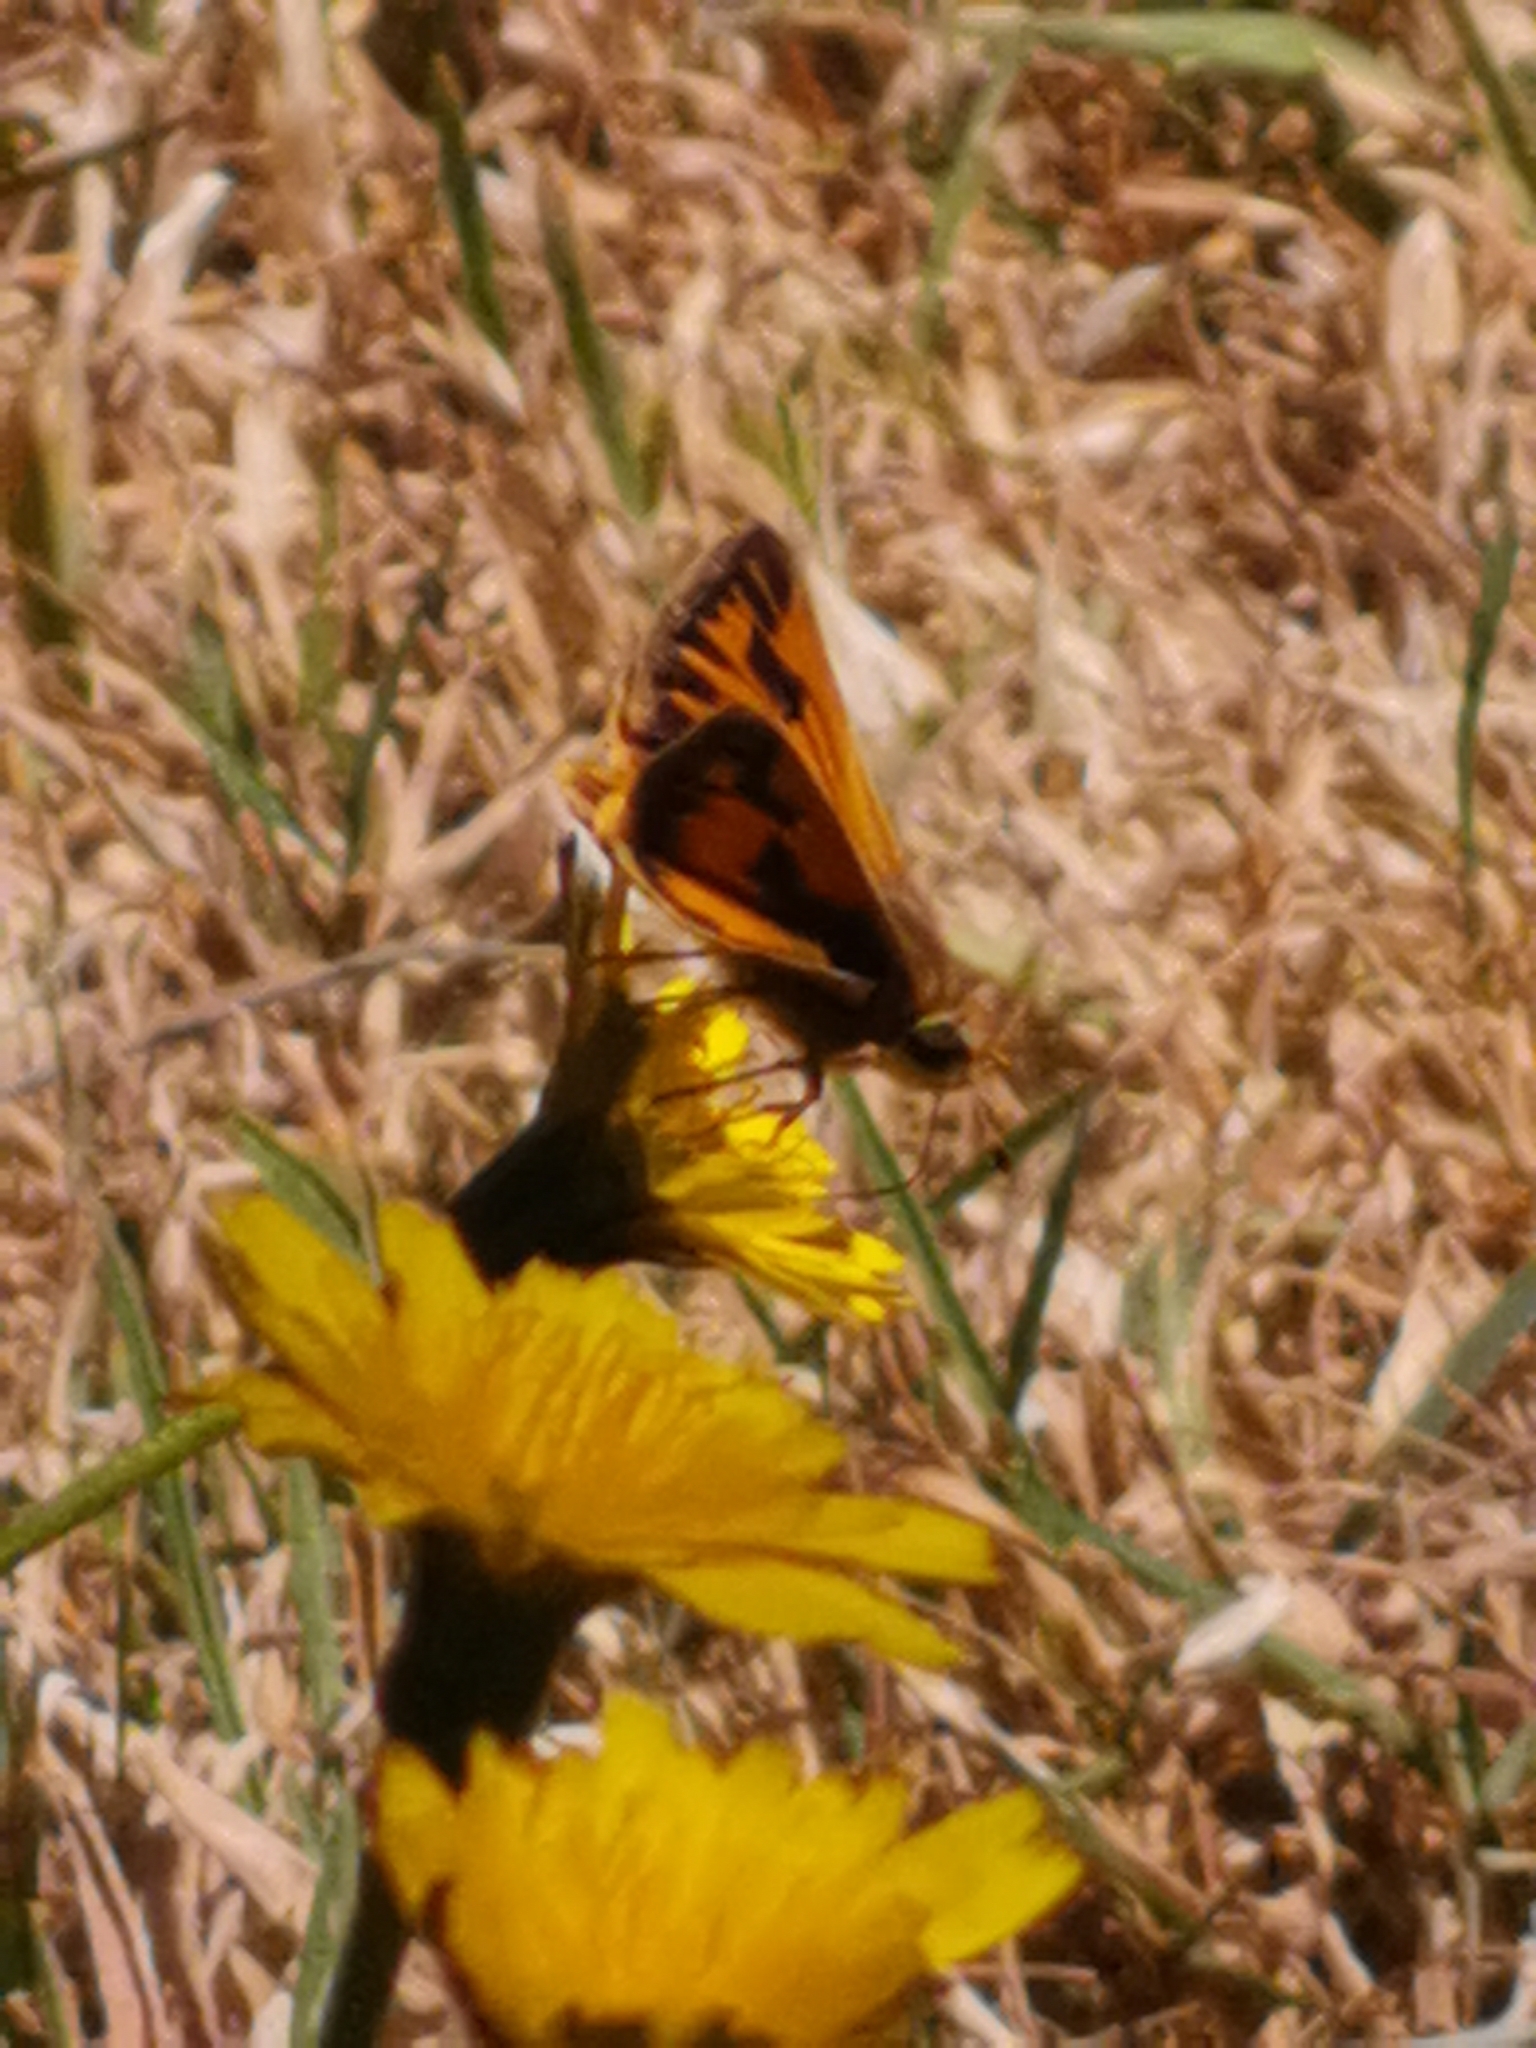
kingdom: Animalia
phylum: Arthropoda
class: Insecta
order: Lepidoptera
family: Hesperiidae
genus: Hylephila
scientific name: Hylephila fasciolata
